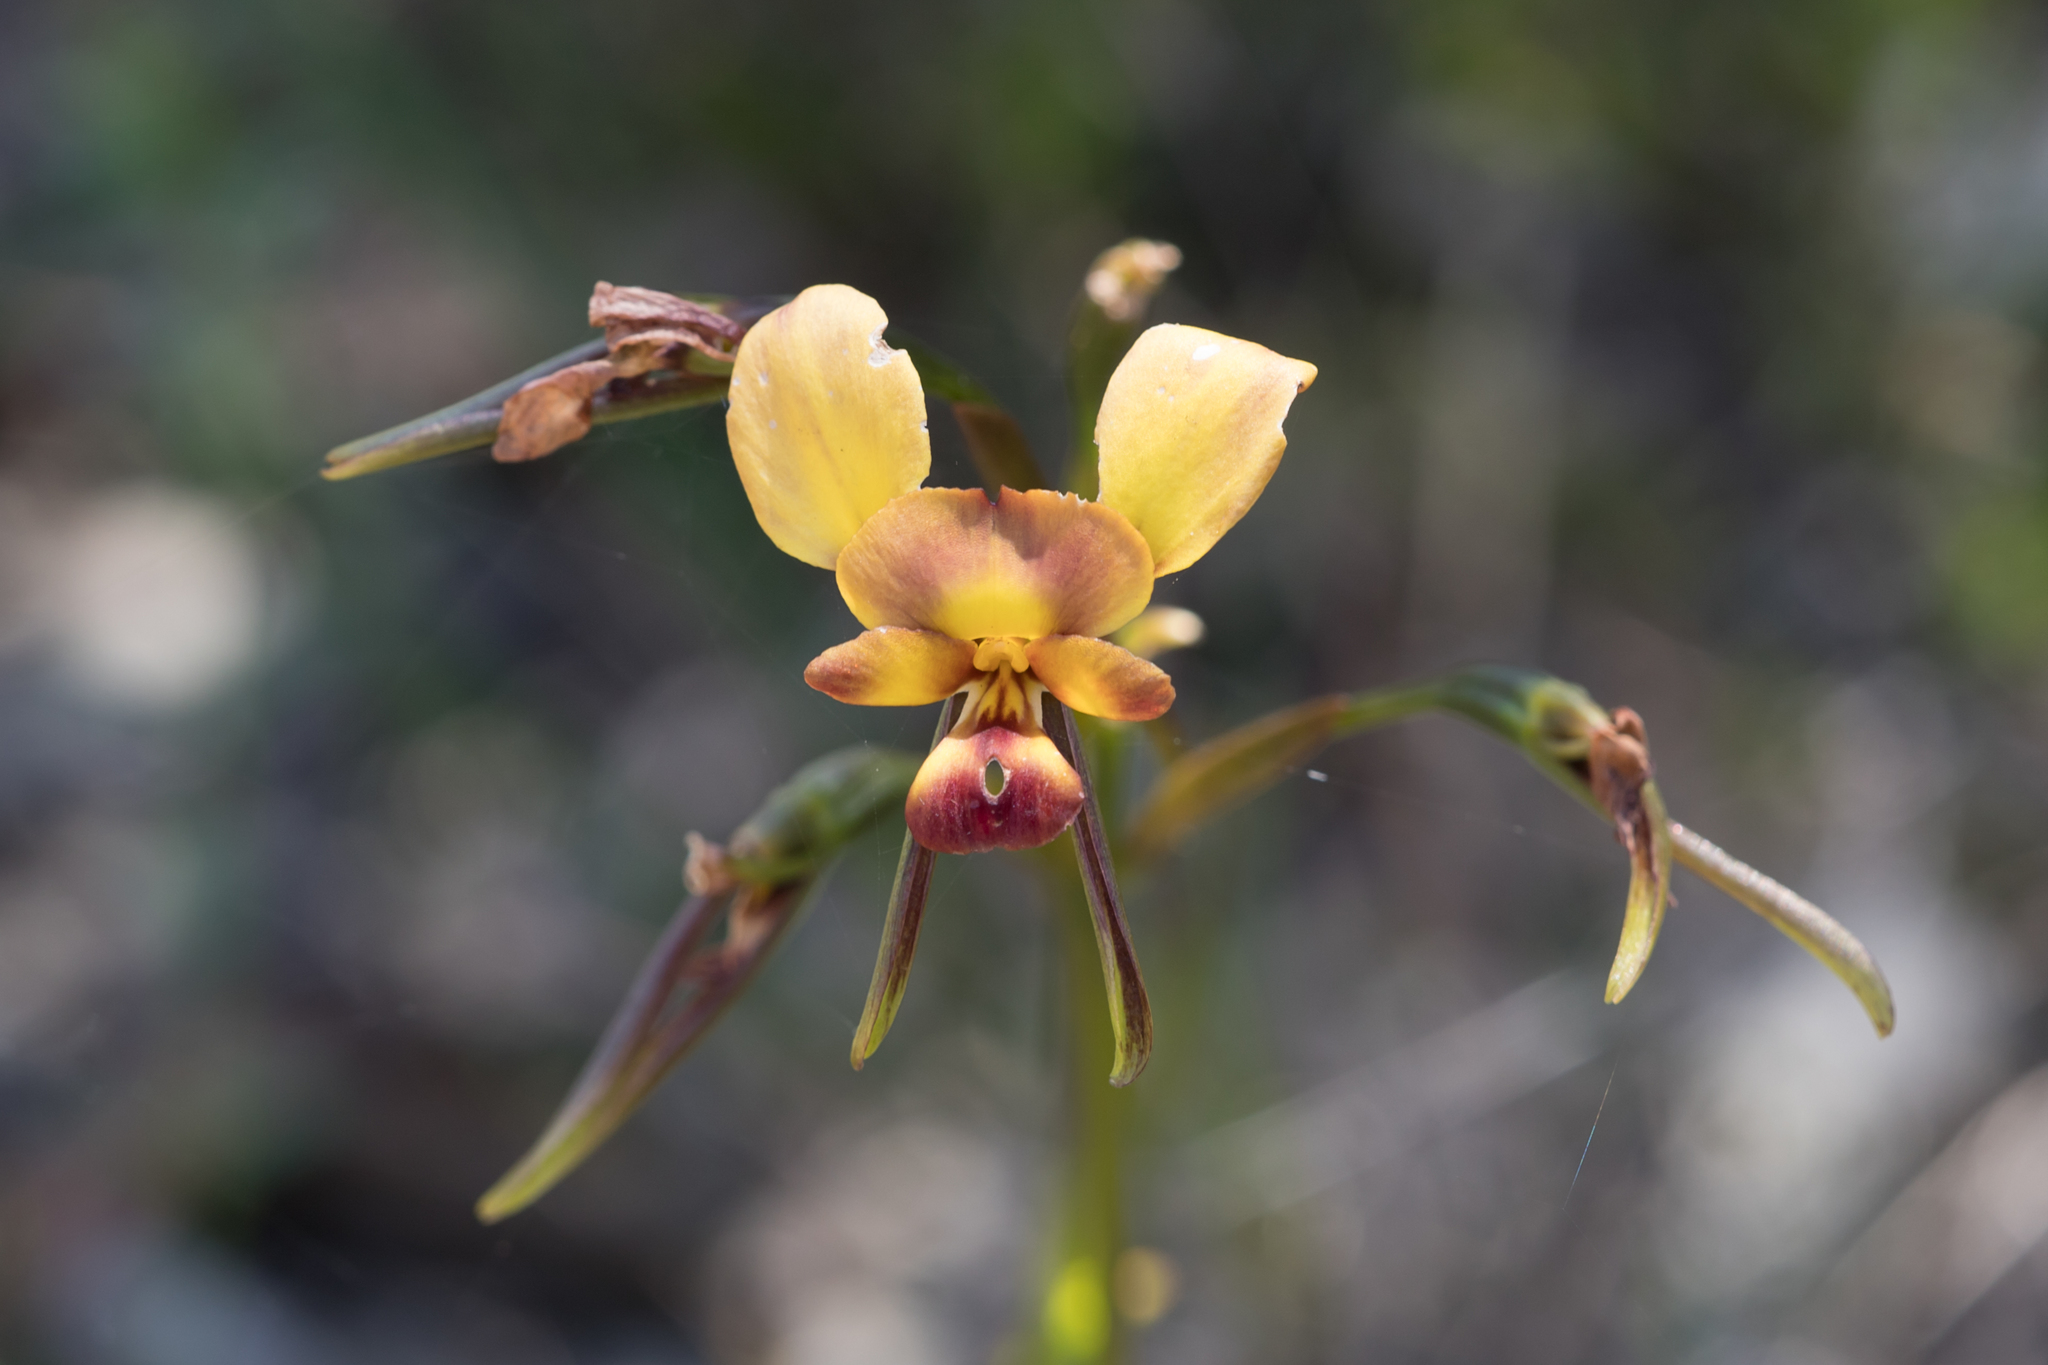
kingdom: Plantae
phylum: Tracheophyta
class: Liliopsida
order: Asparagales
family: Orchidaceae
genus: Diuris
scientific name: Diuris orientis
